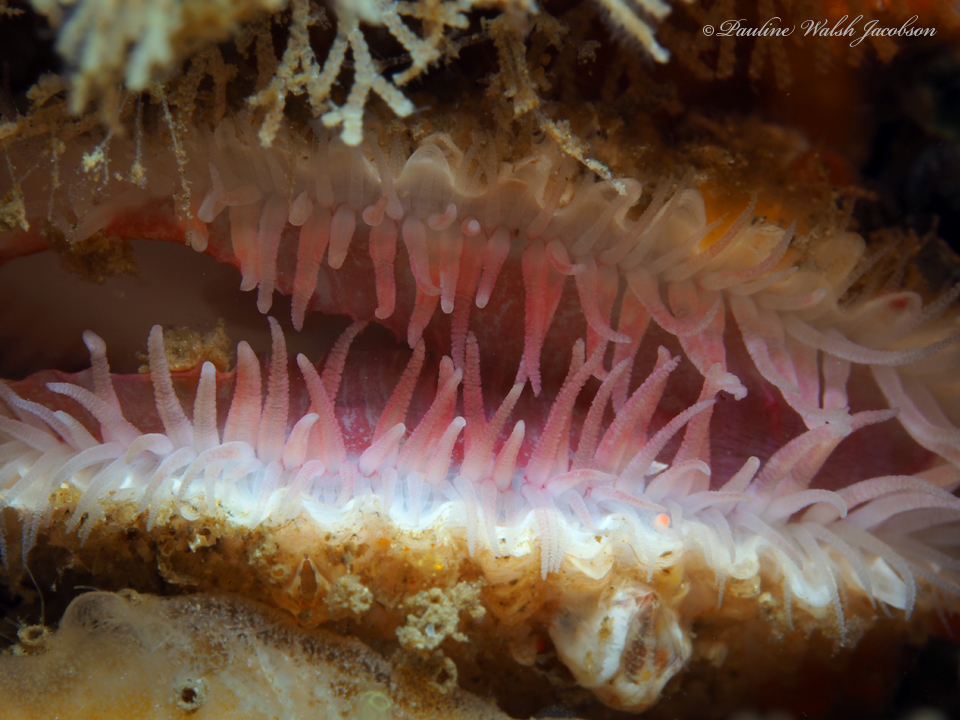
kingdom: Animalia
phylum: Mollusca
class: Bivalvia
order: Limida
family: Limidae
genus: Lima
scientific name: Lima caribaea
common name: Spiny file clam
